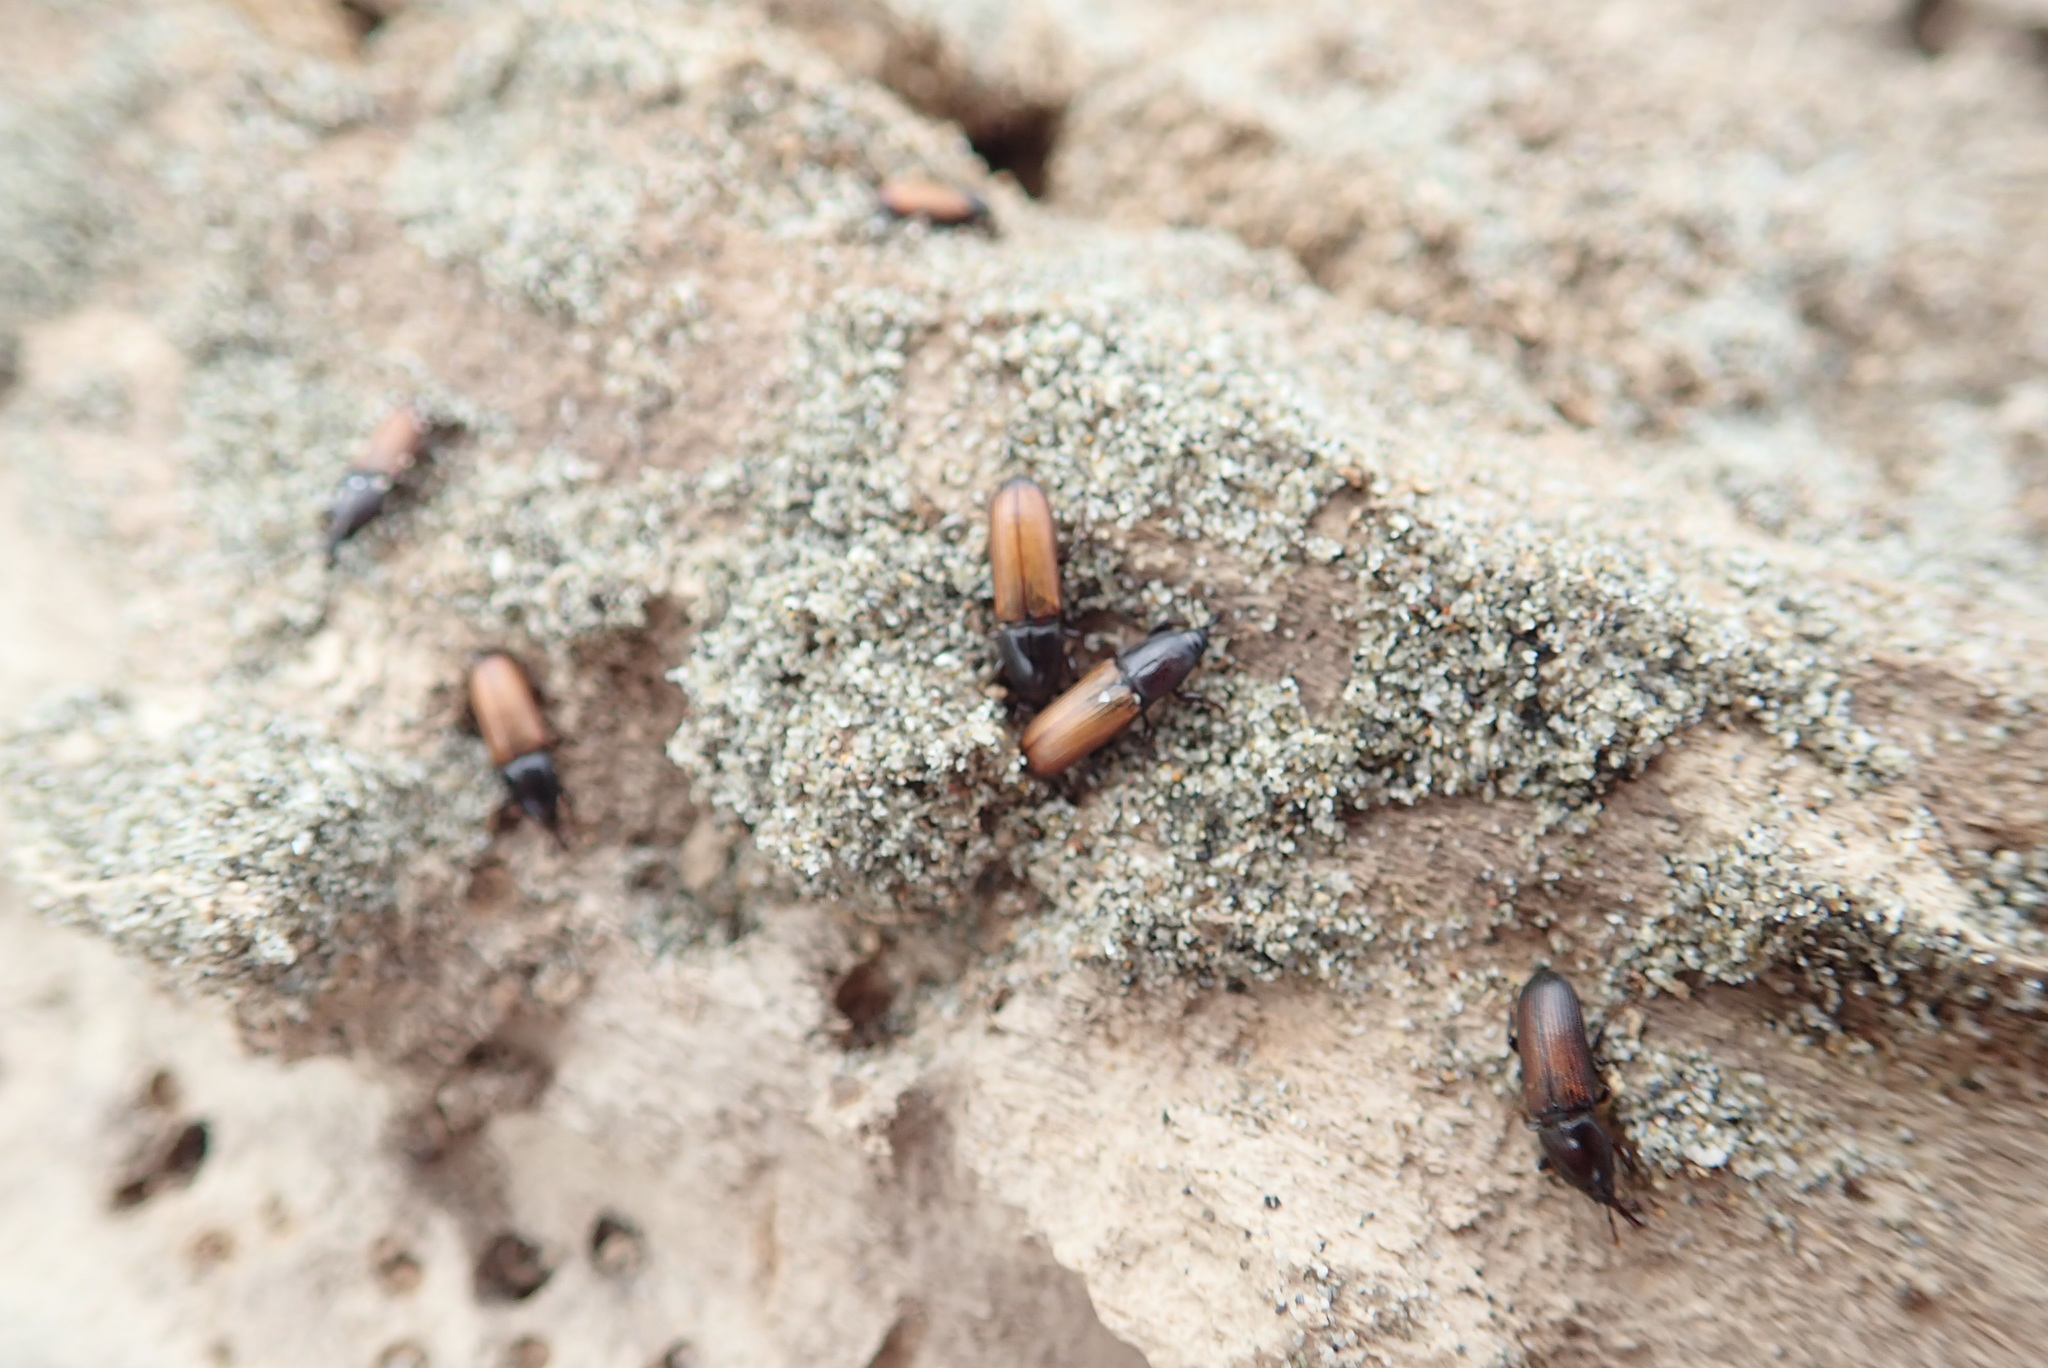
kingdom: Animalia
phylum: Arthropoda
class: Insecta
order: Coleoptera
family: Curculionidae
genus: Mesites
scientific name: Mesites pallidipennis
